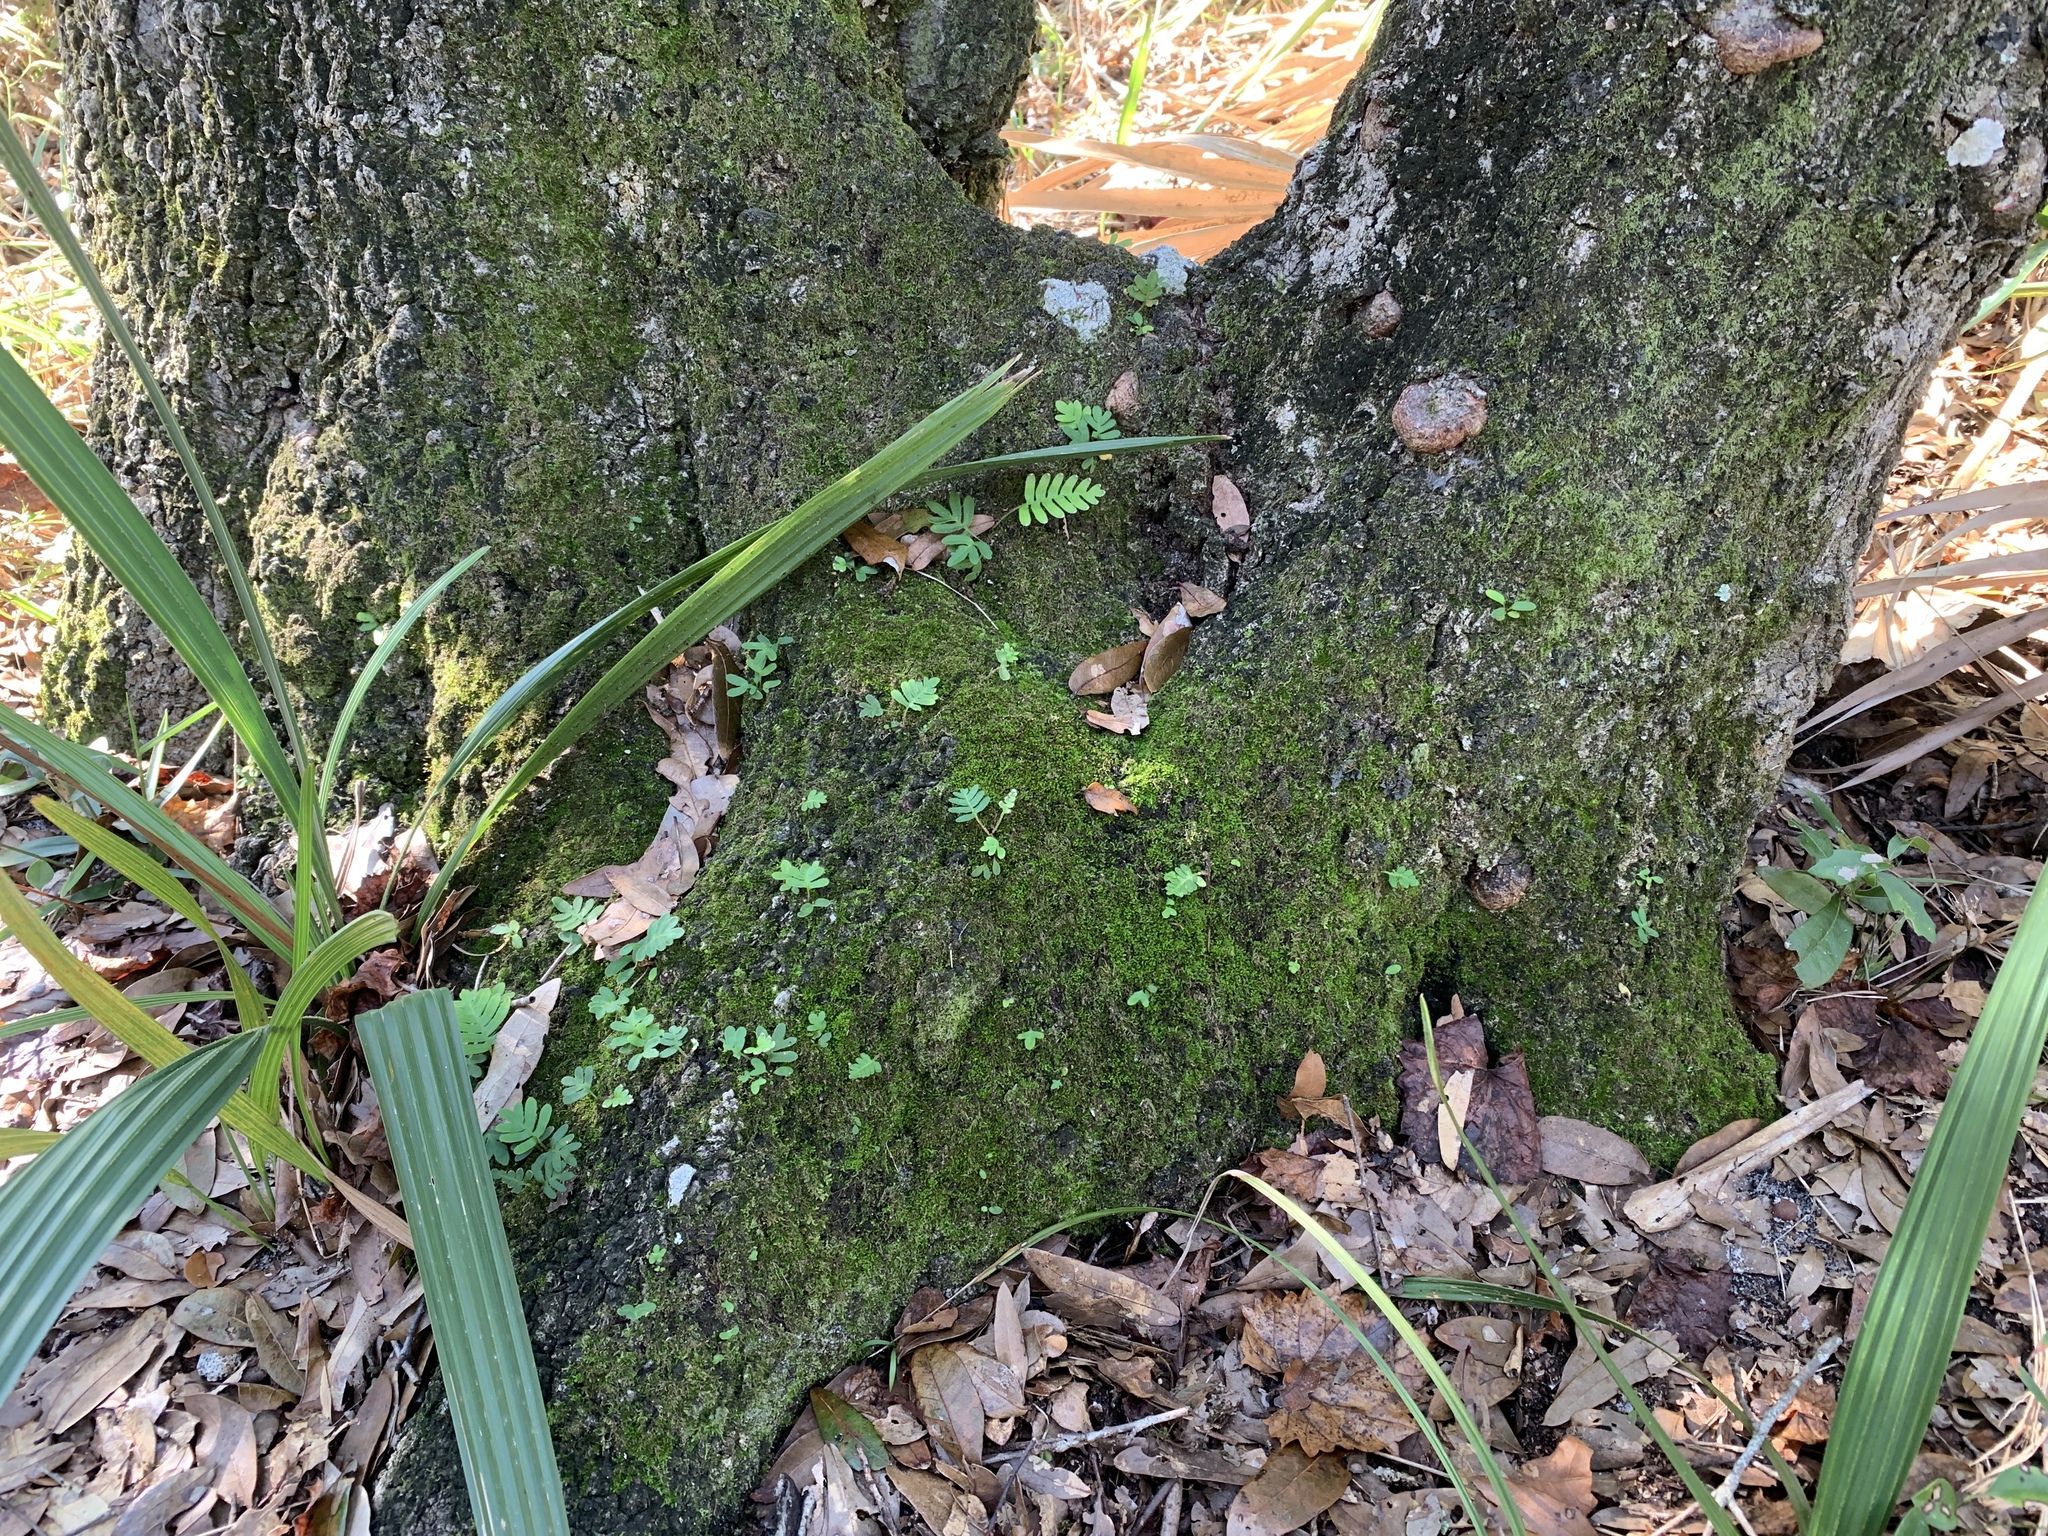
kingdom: Plantae
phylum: Tracheophyta
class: Polypodiopsida
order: Polypodiales
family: Polypodiaceae
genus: Pleopeltis
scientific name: Pleopeltis michauxiana
